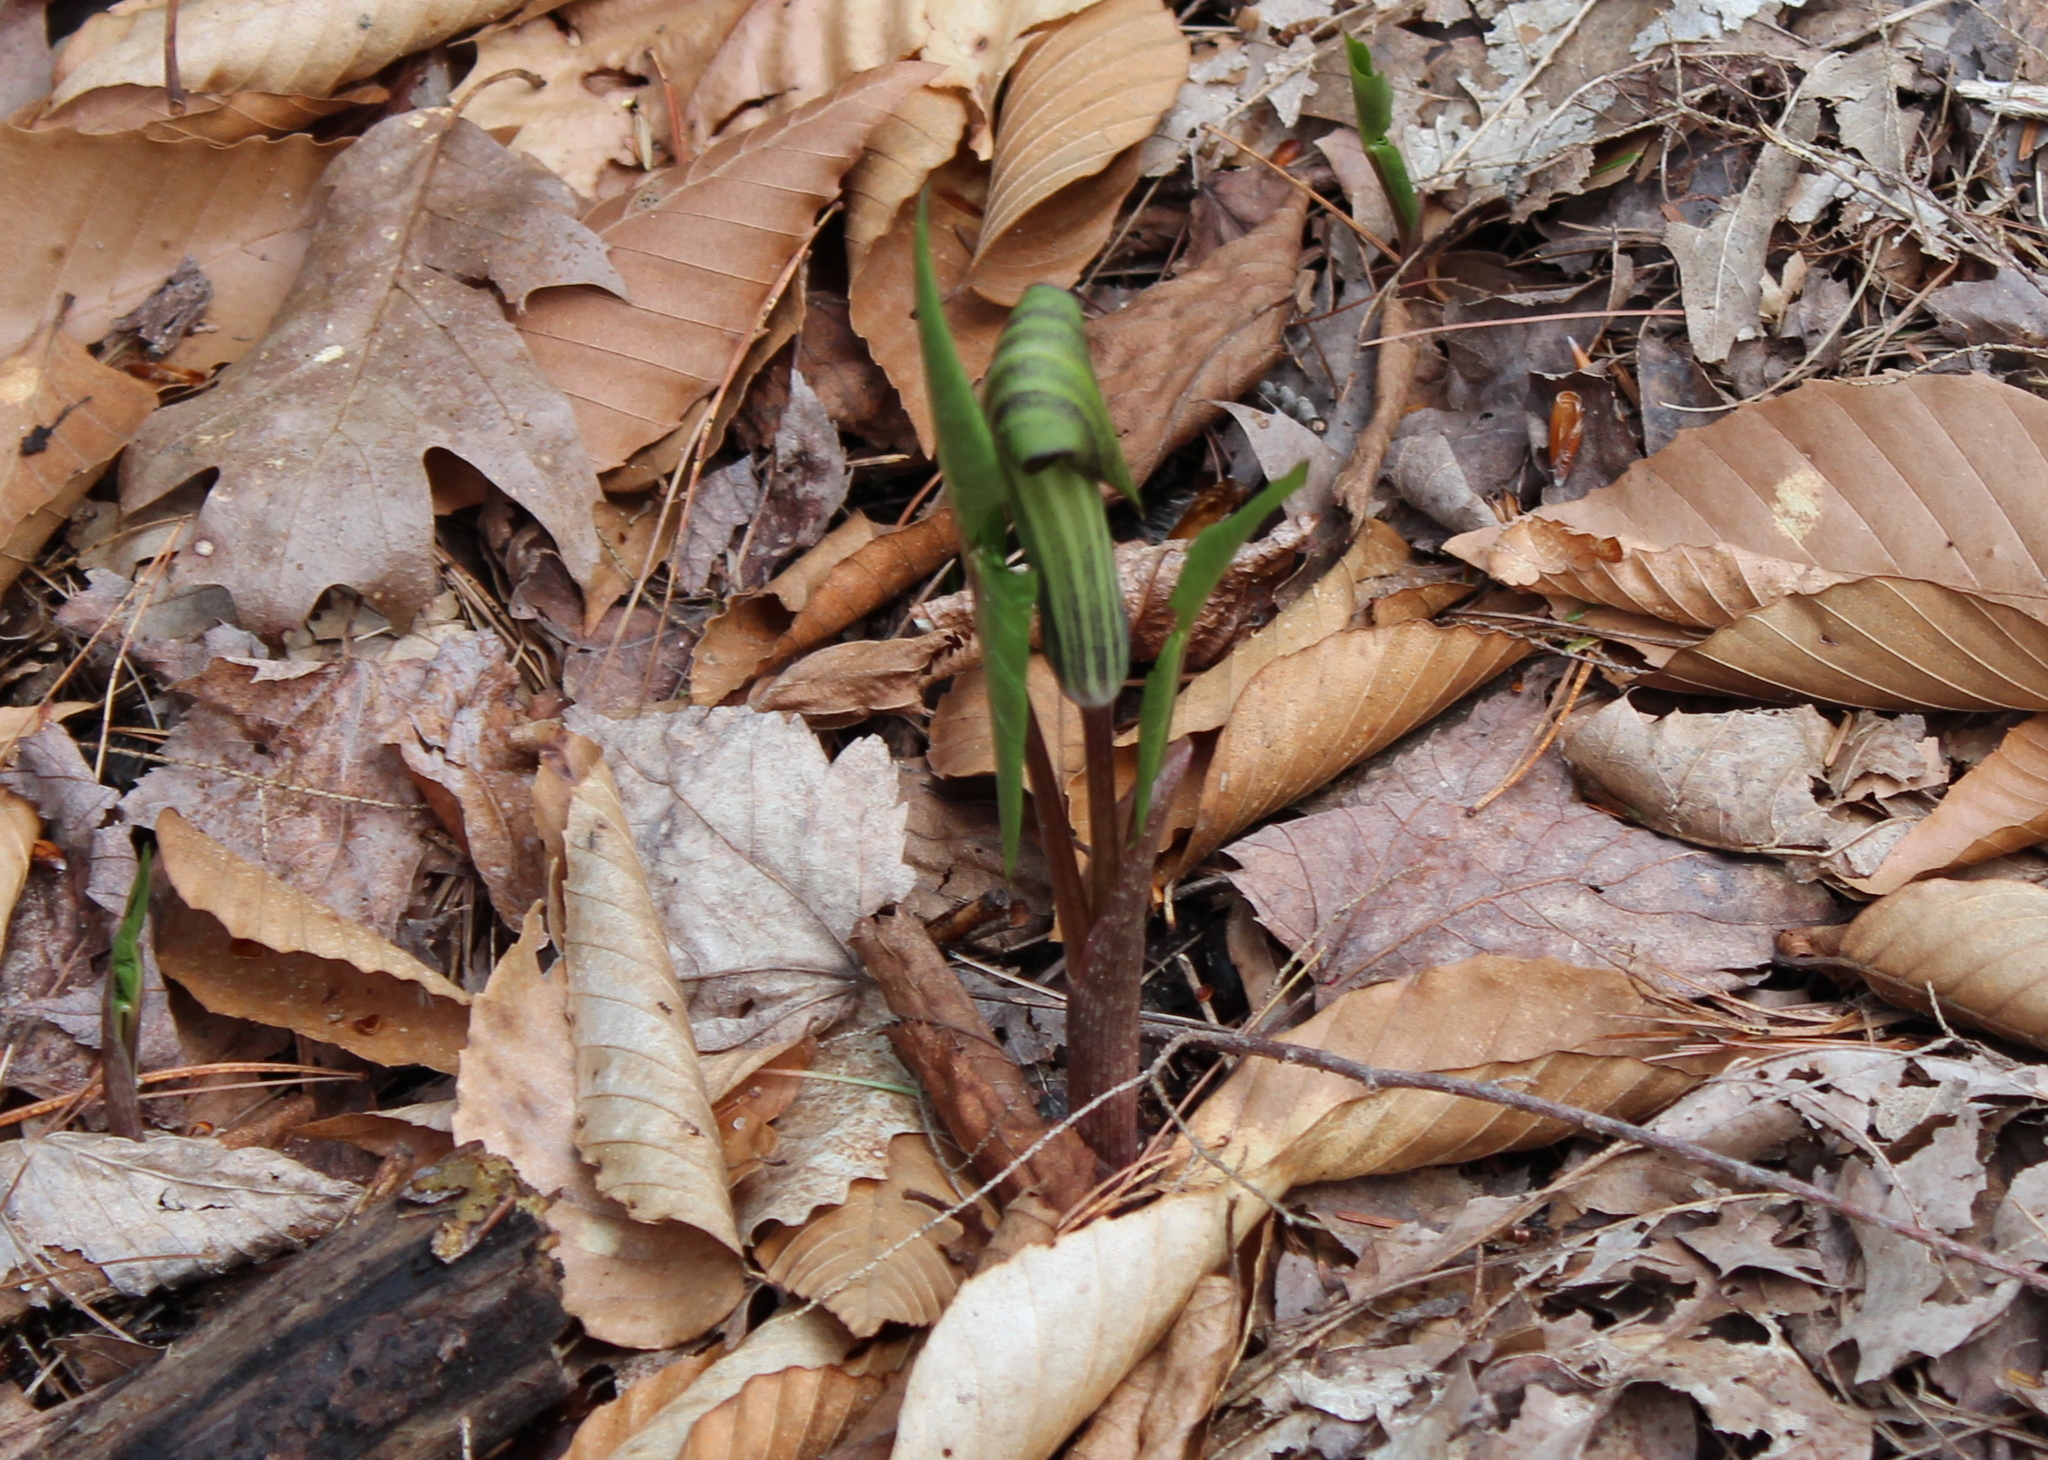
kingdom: Plantae
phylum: Tracheophyta
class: Liliopsida
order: Alismatales
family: Araceae
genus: Arisaema
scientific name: Arisaema triphyllum
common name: Jack-in-the-pulpit
